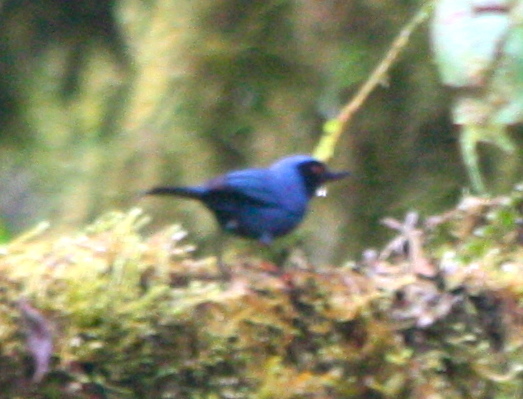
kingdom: Animalia
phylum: Chordata
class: Aves
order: Passeriformes
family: Thraupidae
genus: Diglossa
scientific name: Diglossa cyanea
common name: Masked flowerpiercer
